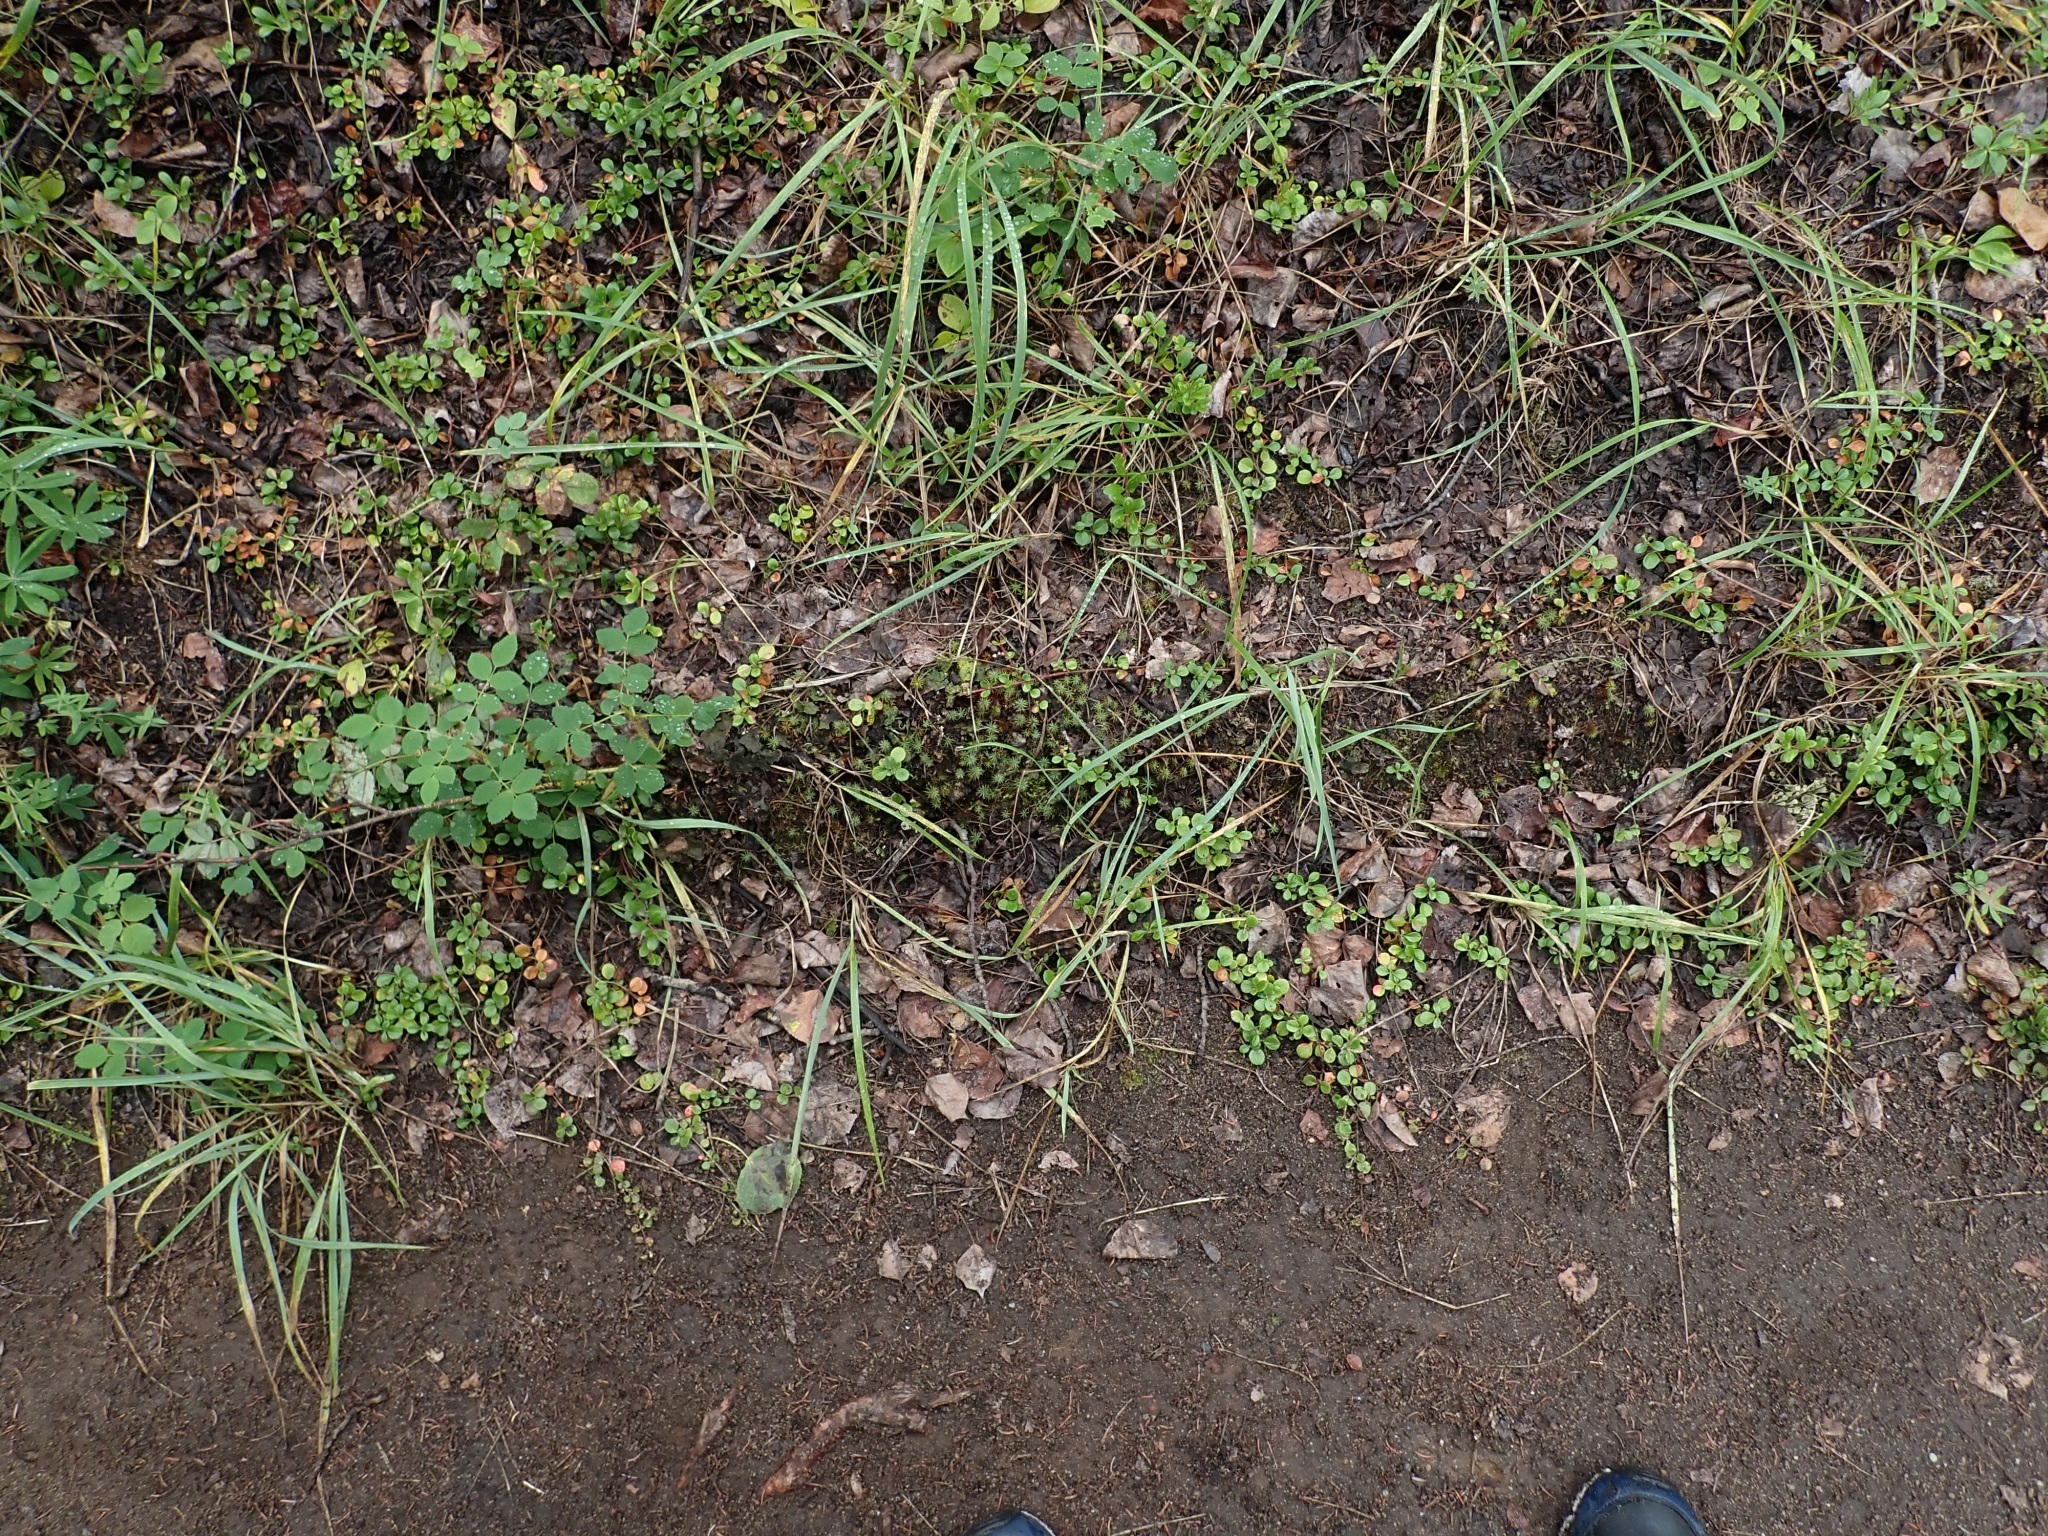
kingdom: Plantae
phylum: Bryophyta
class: Polytrichopsida
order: Polytrichales
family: Polytrichaceae
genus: Polytrichum
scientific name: Polytrichum juniperinum
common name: Juniper haircap moss
